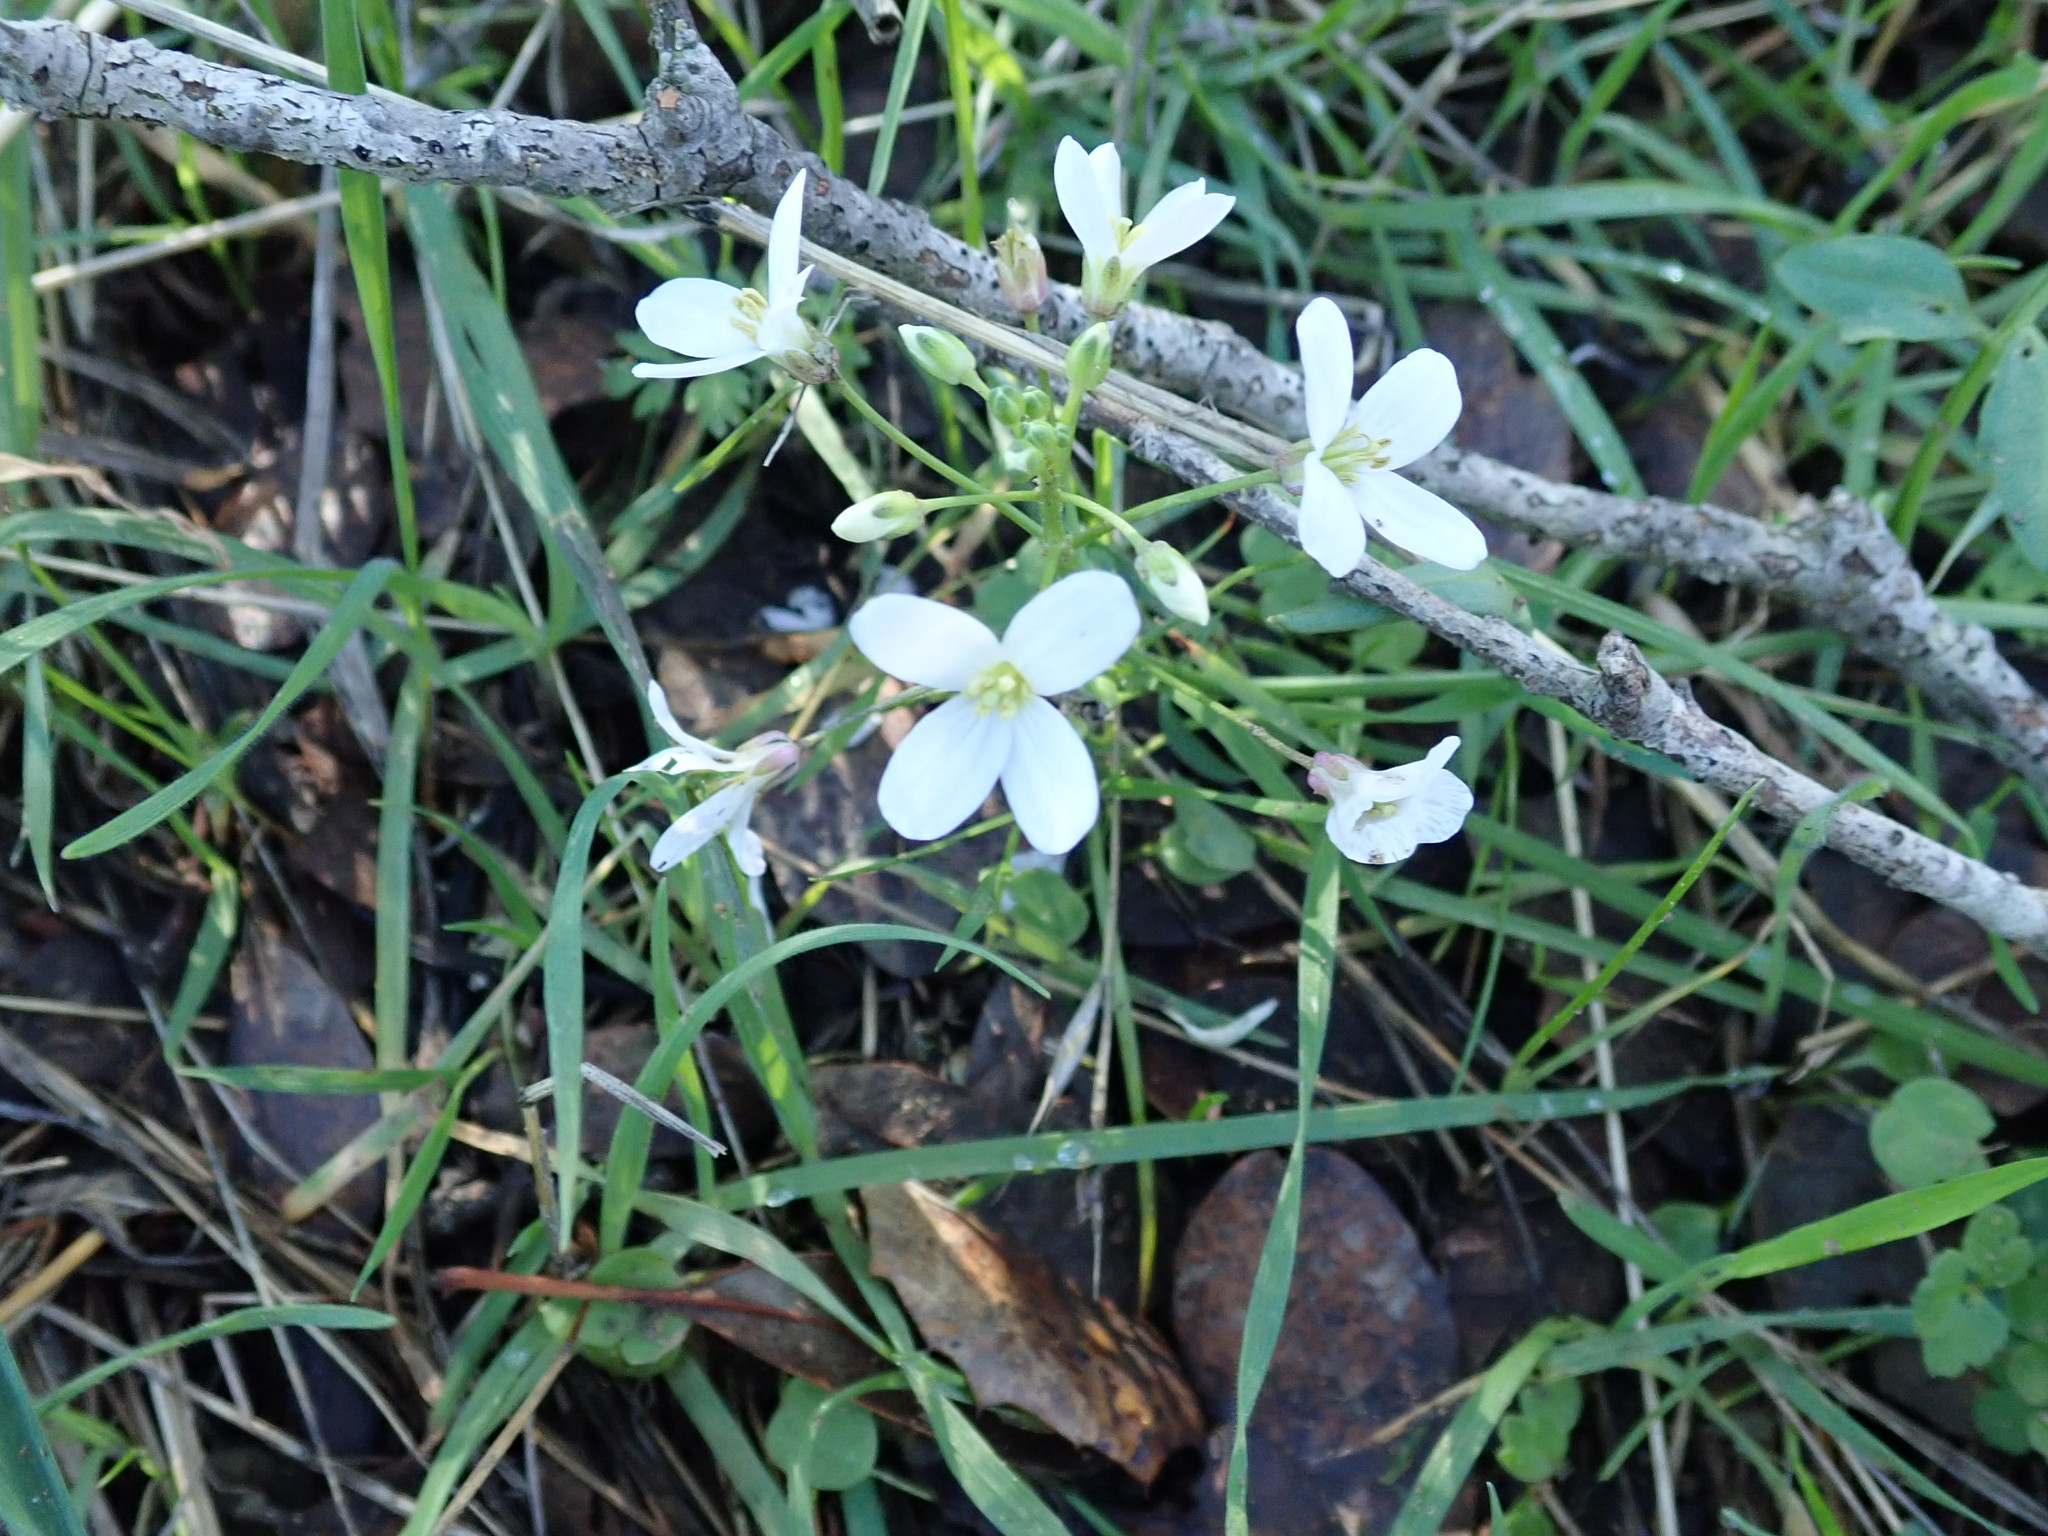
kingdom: Plantae
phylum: Tracheophyta
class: Magnoliopsida
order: Brassicales
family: Brassicaceae
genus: Cardamine
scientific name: Cardamine californica
